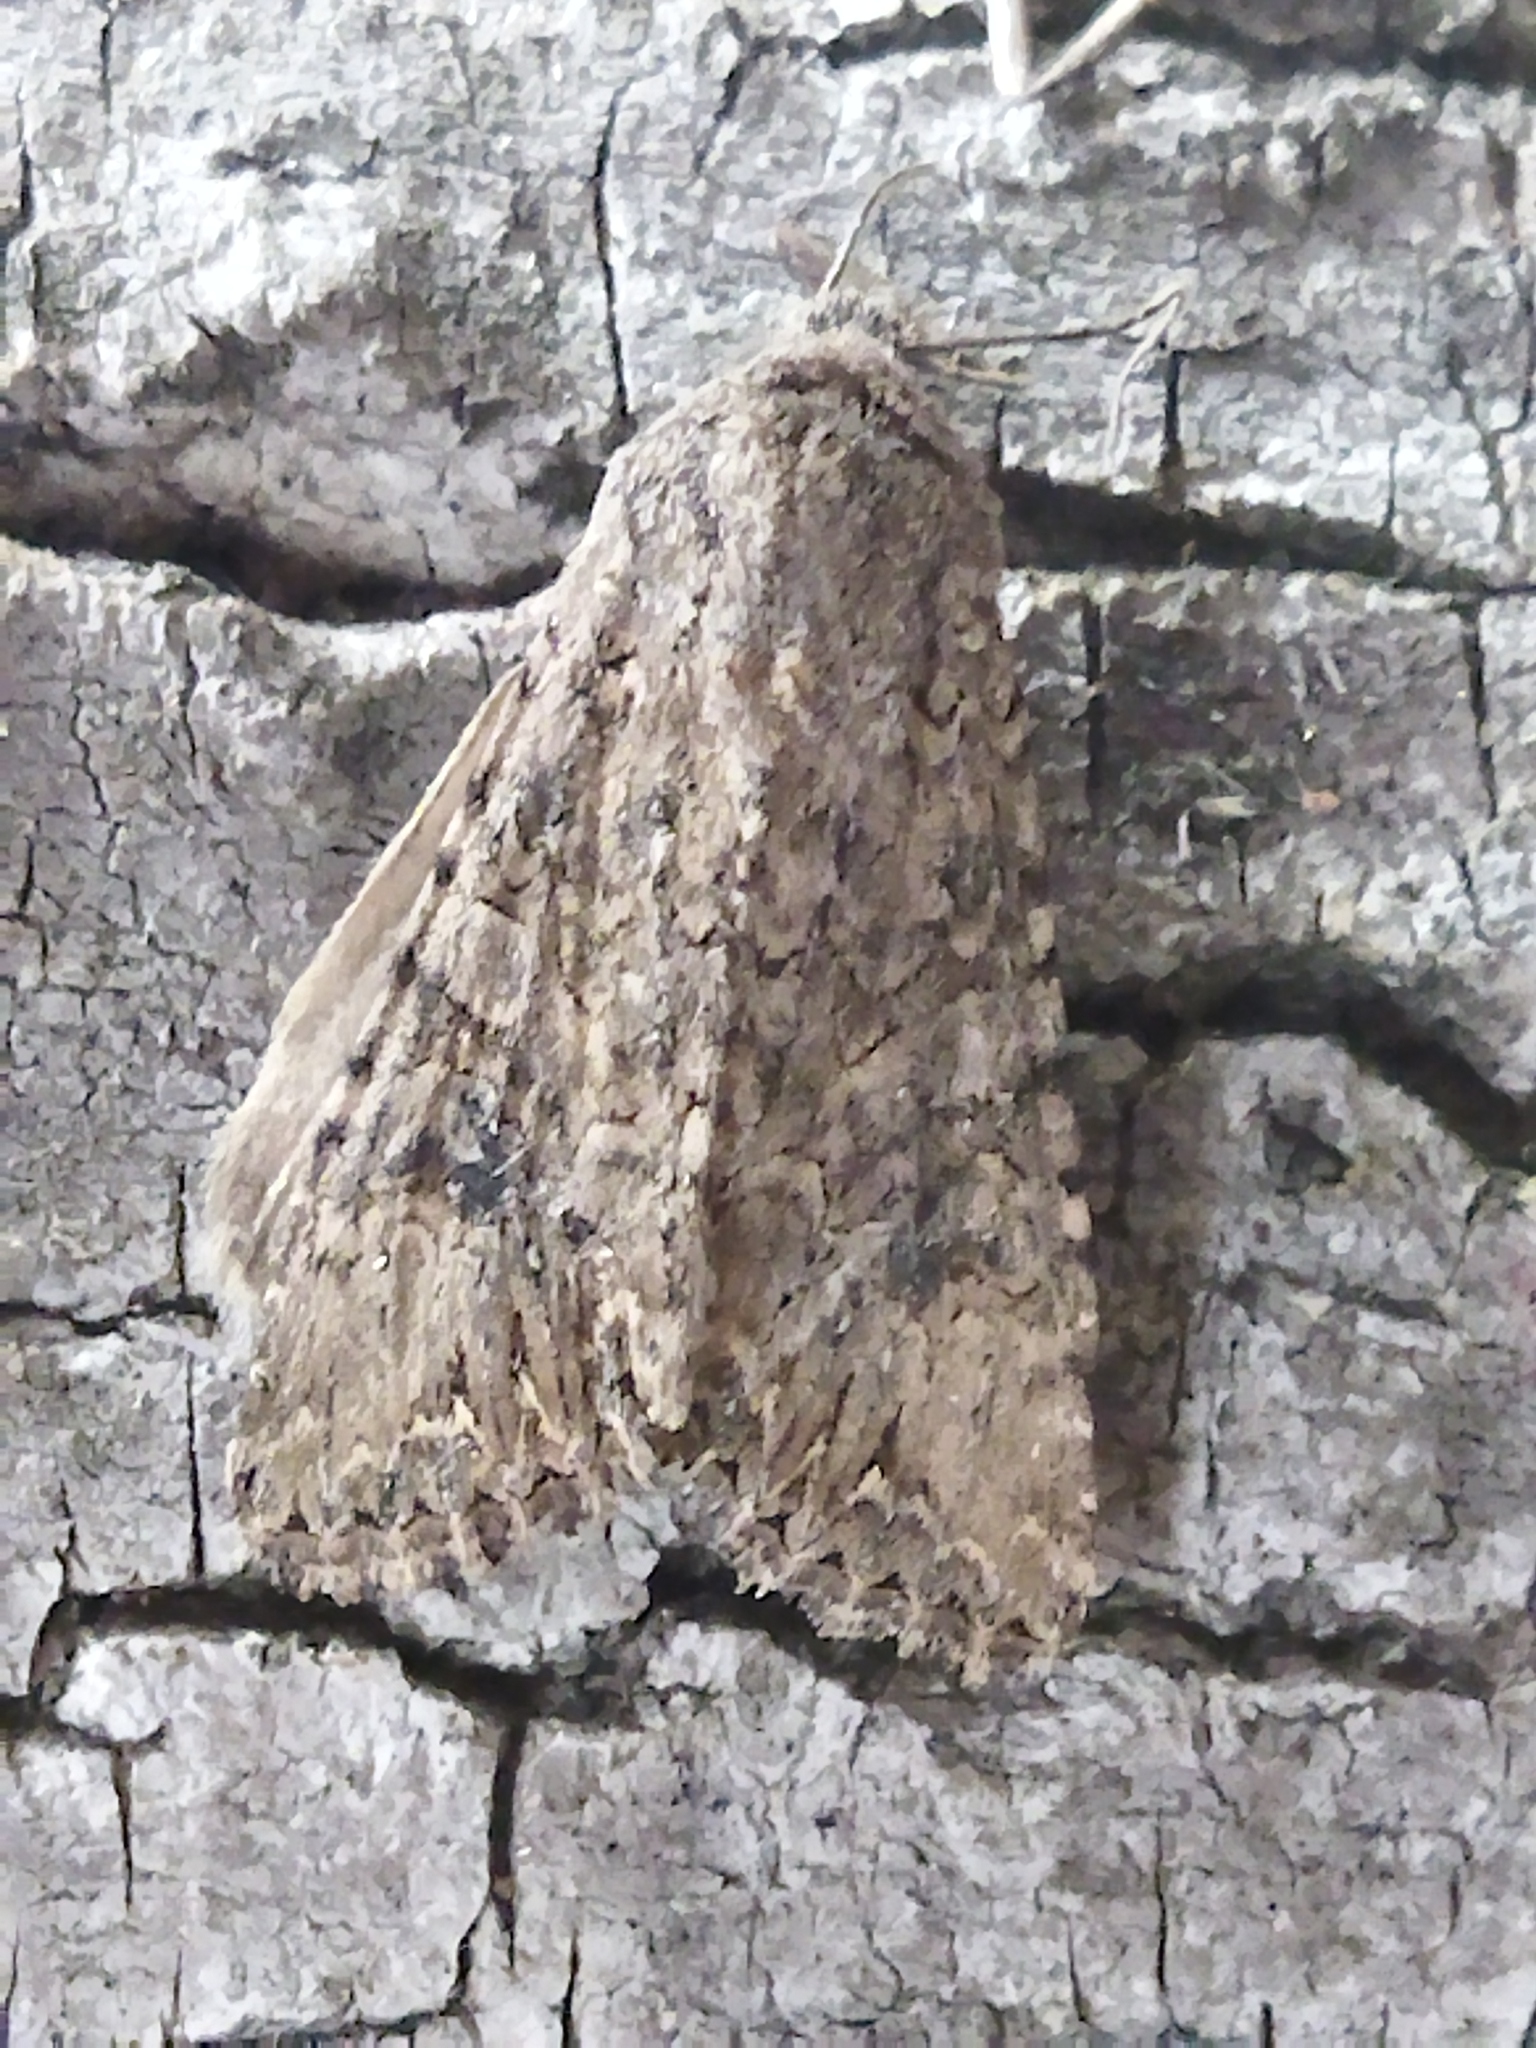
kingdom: Animalia
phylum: Arthropoda
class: Insecta
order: Lepidoptera
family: Noctuidae
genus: Anarta
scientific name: Anarta trifolii
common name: Clover cutworm moth
